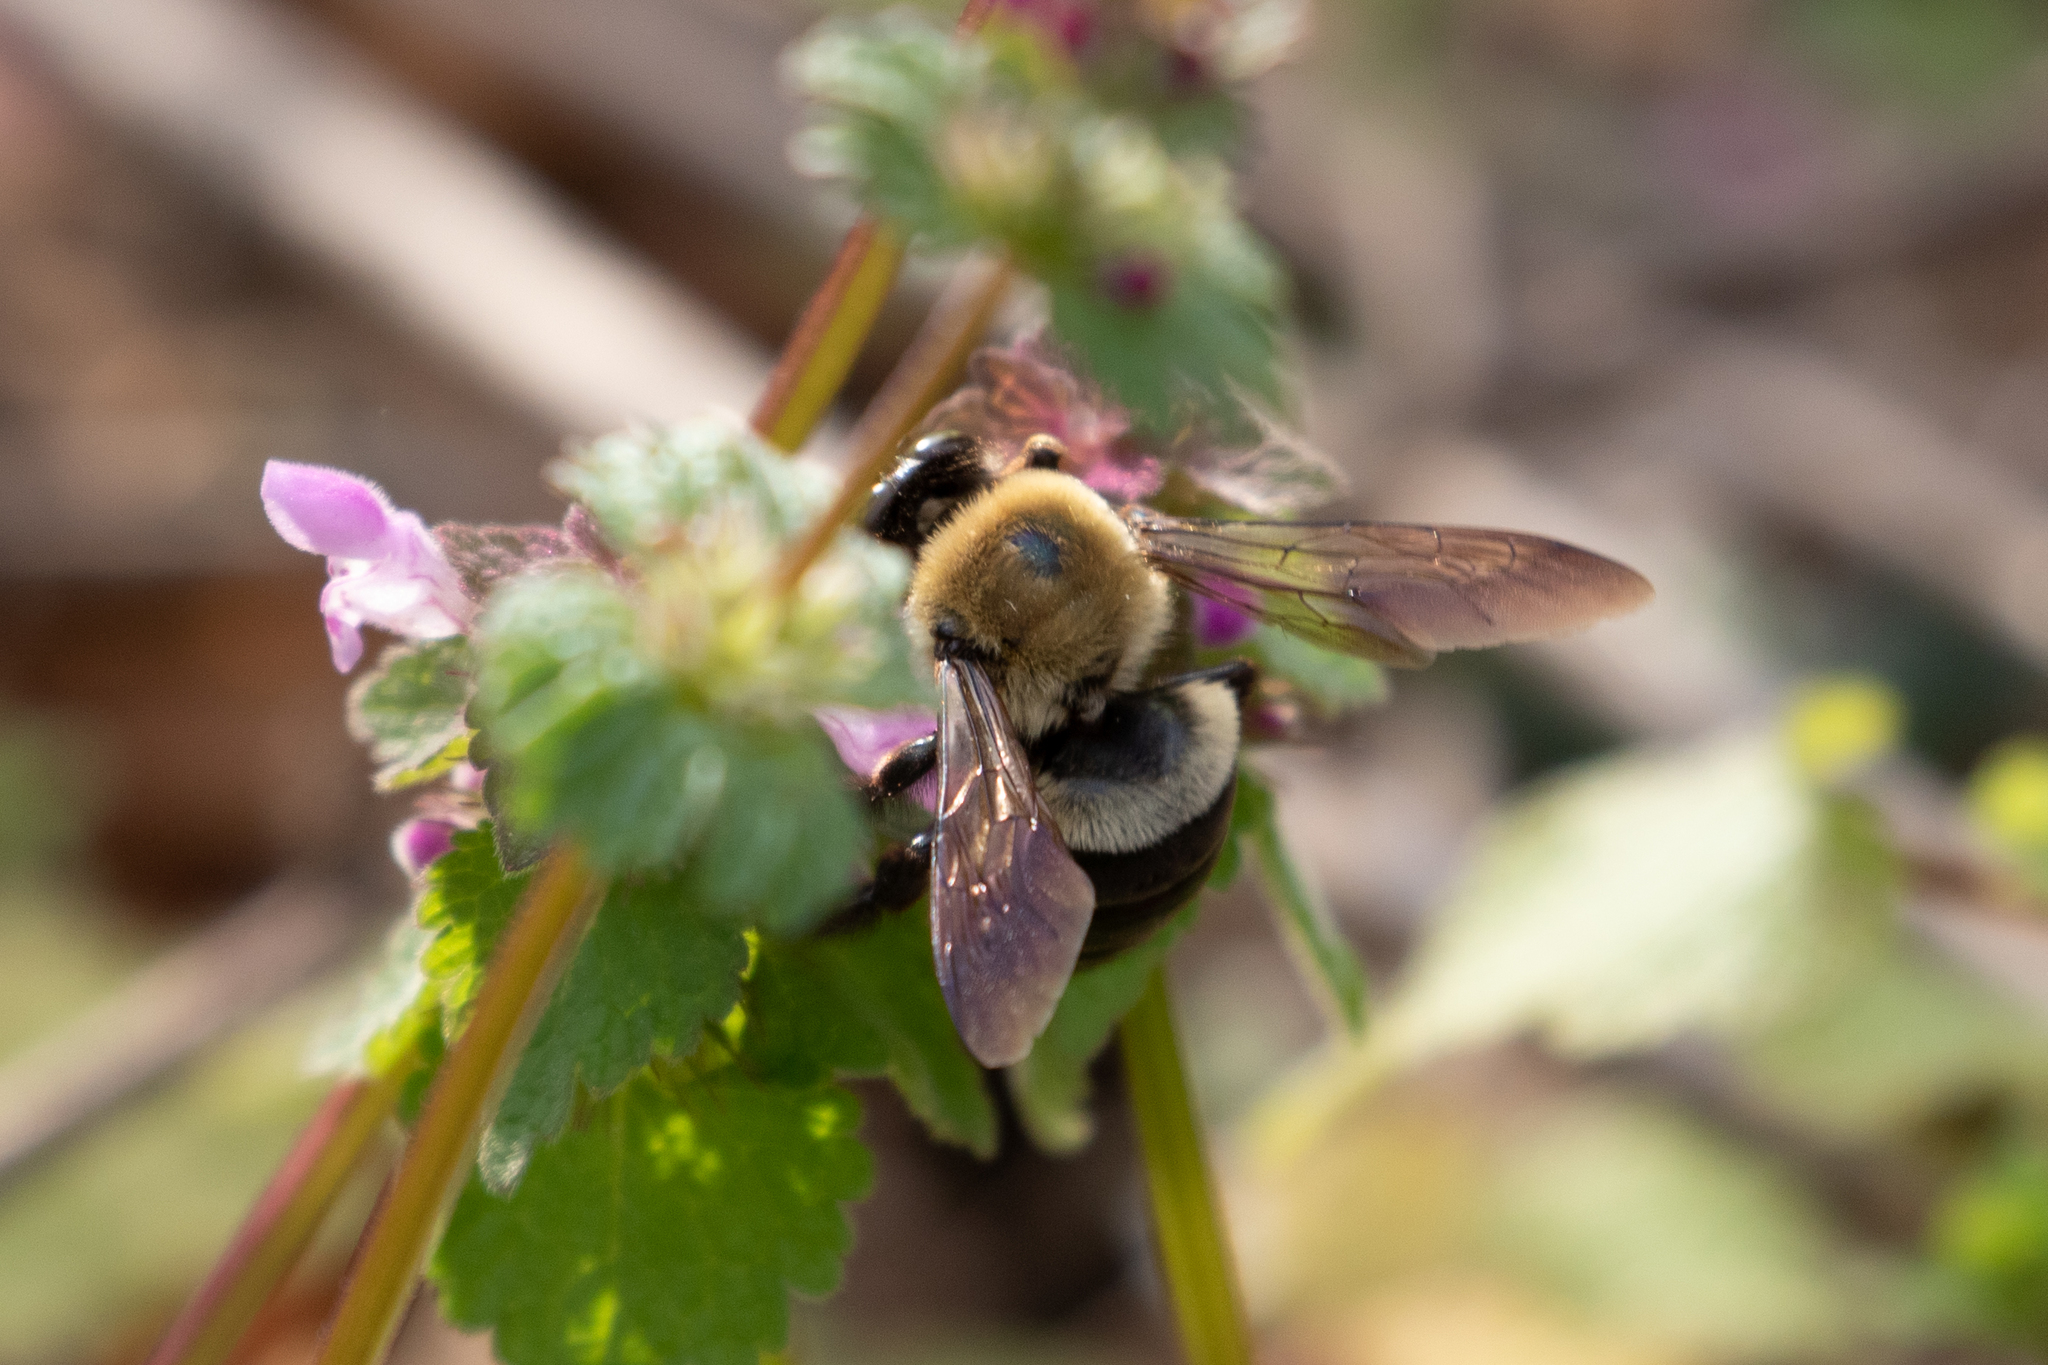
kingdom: Animalia
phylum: Arthropoda
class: Insecta
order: Hymenoptera
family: Apidae
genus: Xylocopa
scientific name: Xylocopa virginica
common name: Carpenter bee
